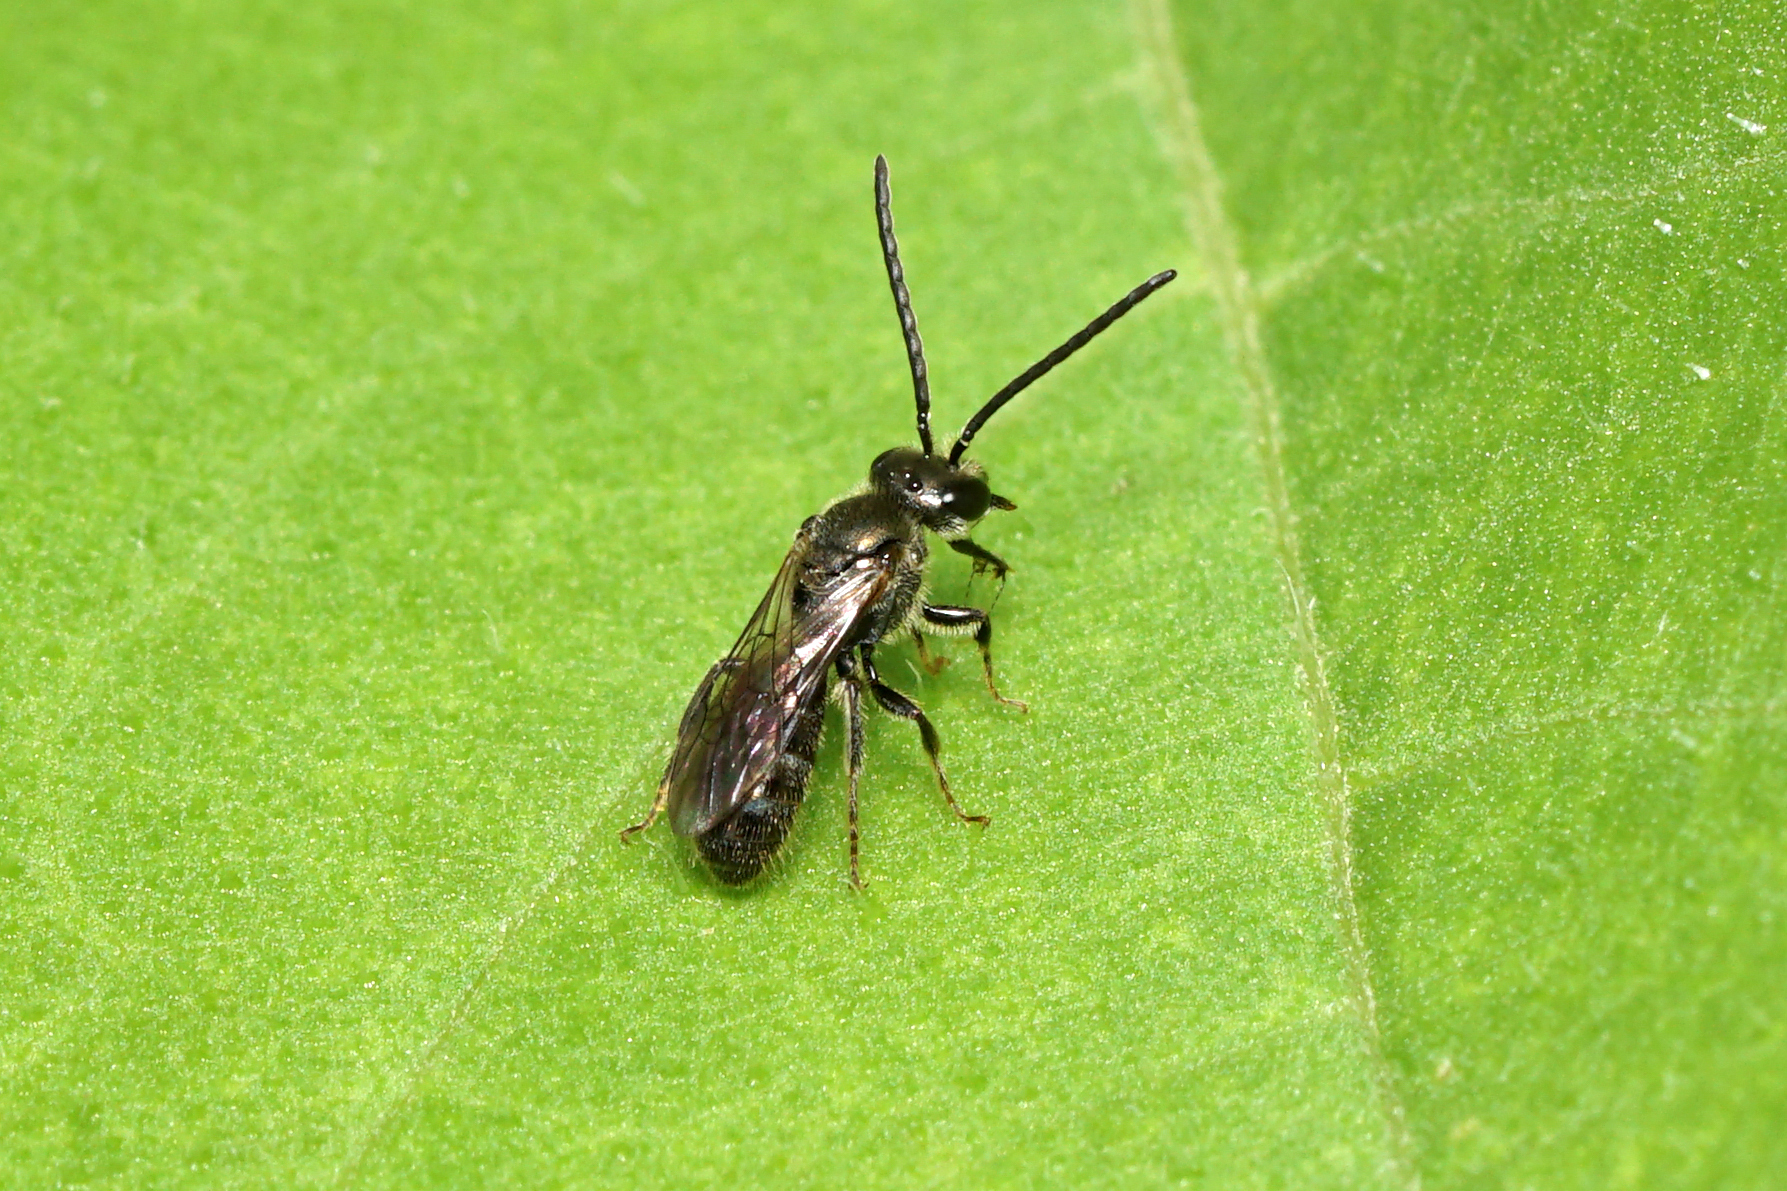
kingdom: Animalia
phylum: Arthropoda
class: Insecta
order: Hymenoptera
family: Halictidae
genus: Dialictus
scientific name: Dialictus
